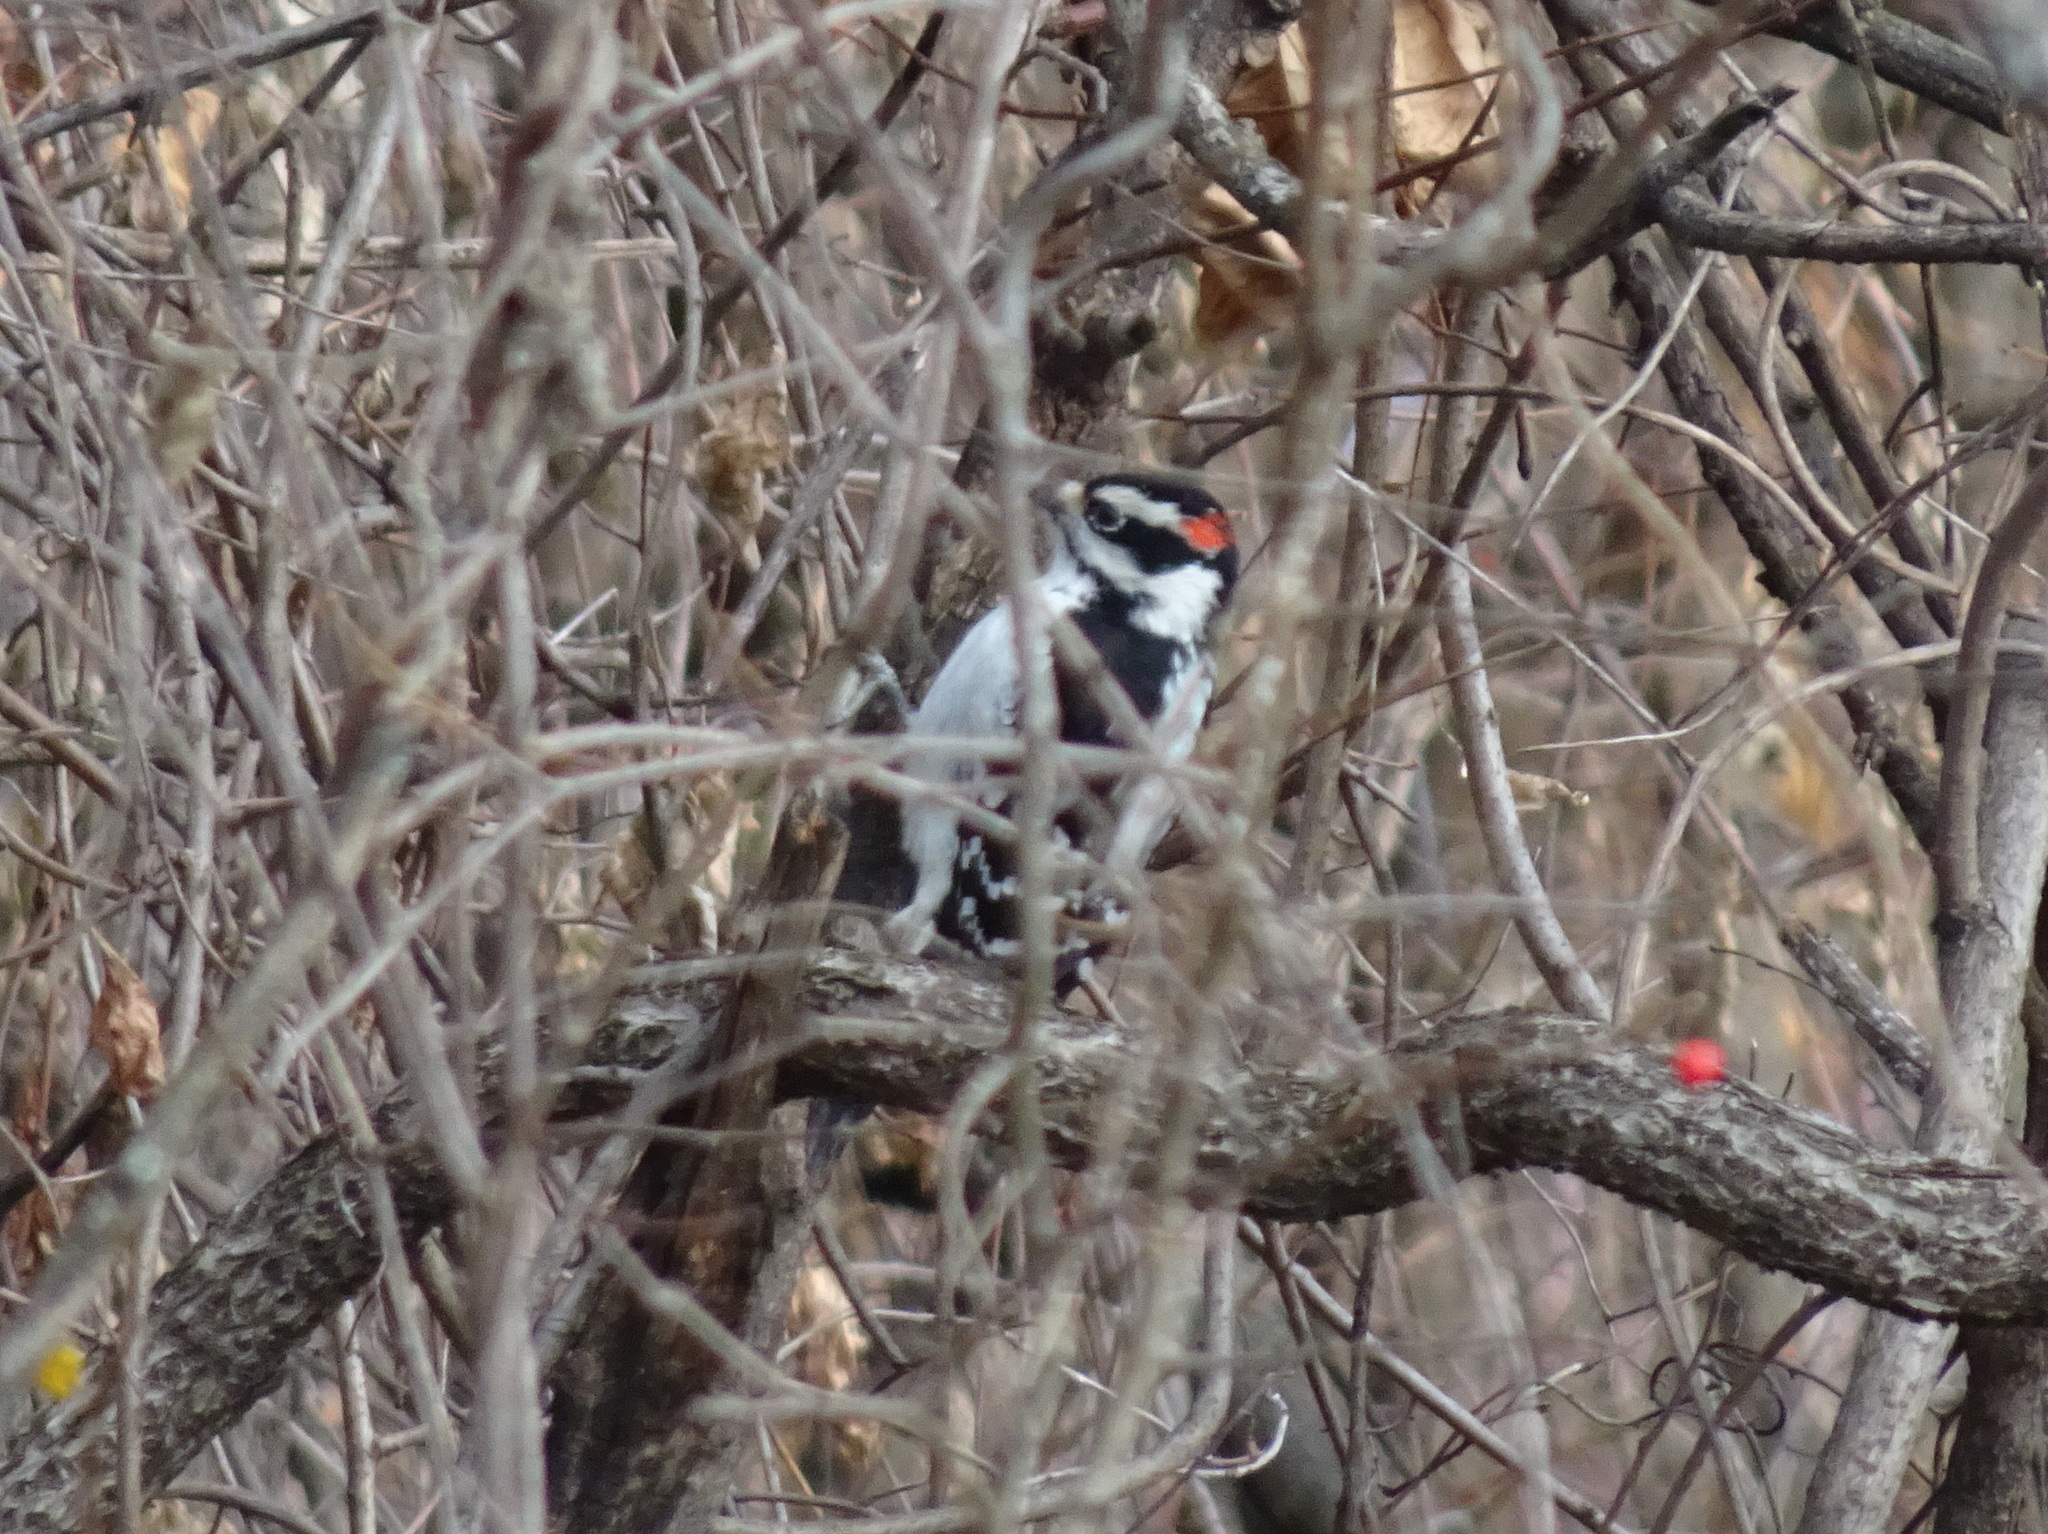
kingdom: Animalia
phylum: Chordata
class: Aves
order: Piciformes
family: Picidae
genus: Leuconotopicus
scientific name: Leuconotopicus villosus
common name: Hairy woodpecker
